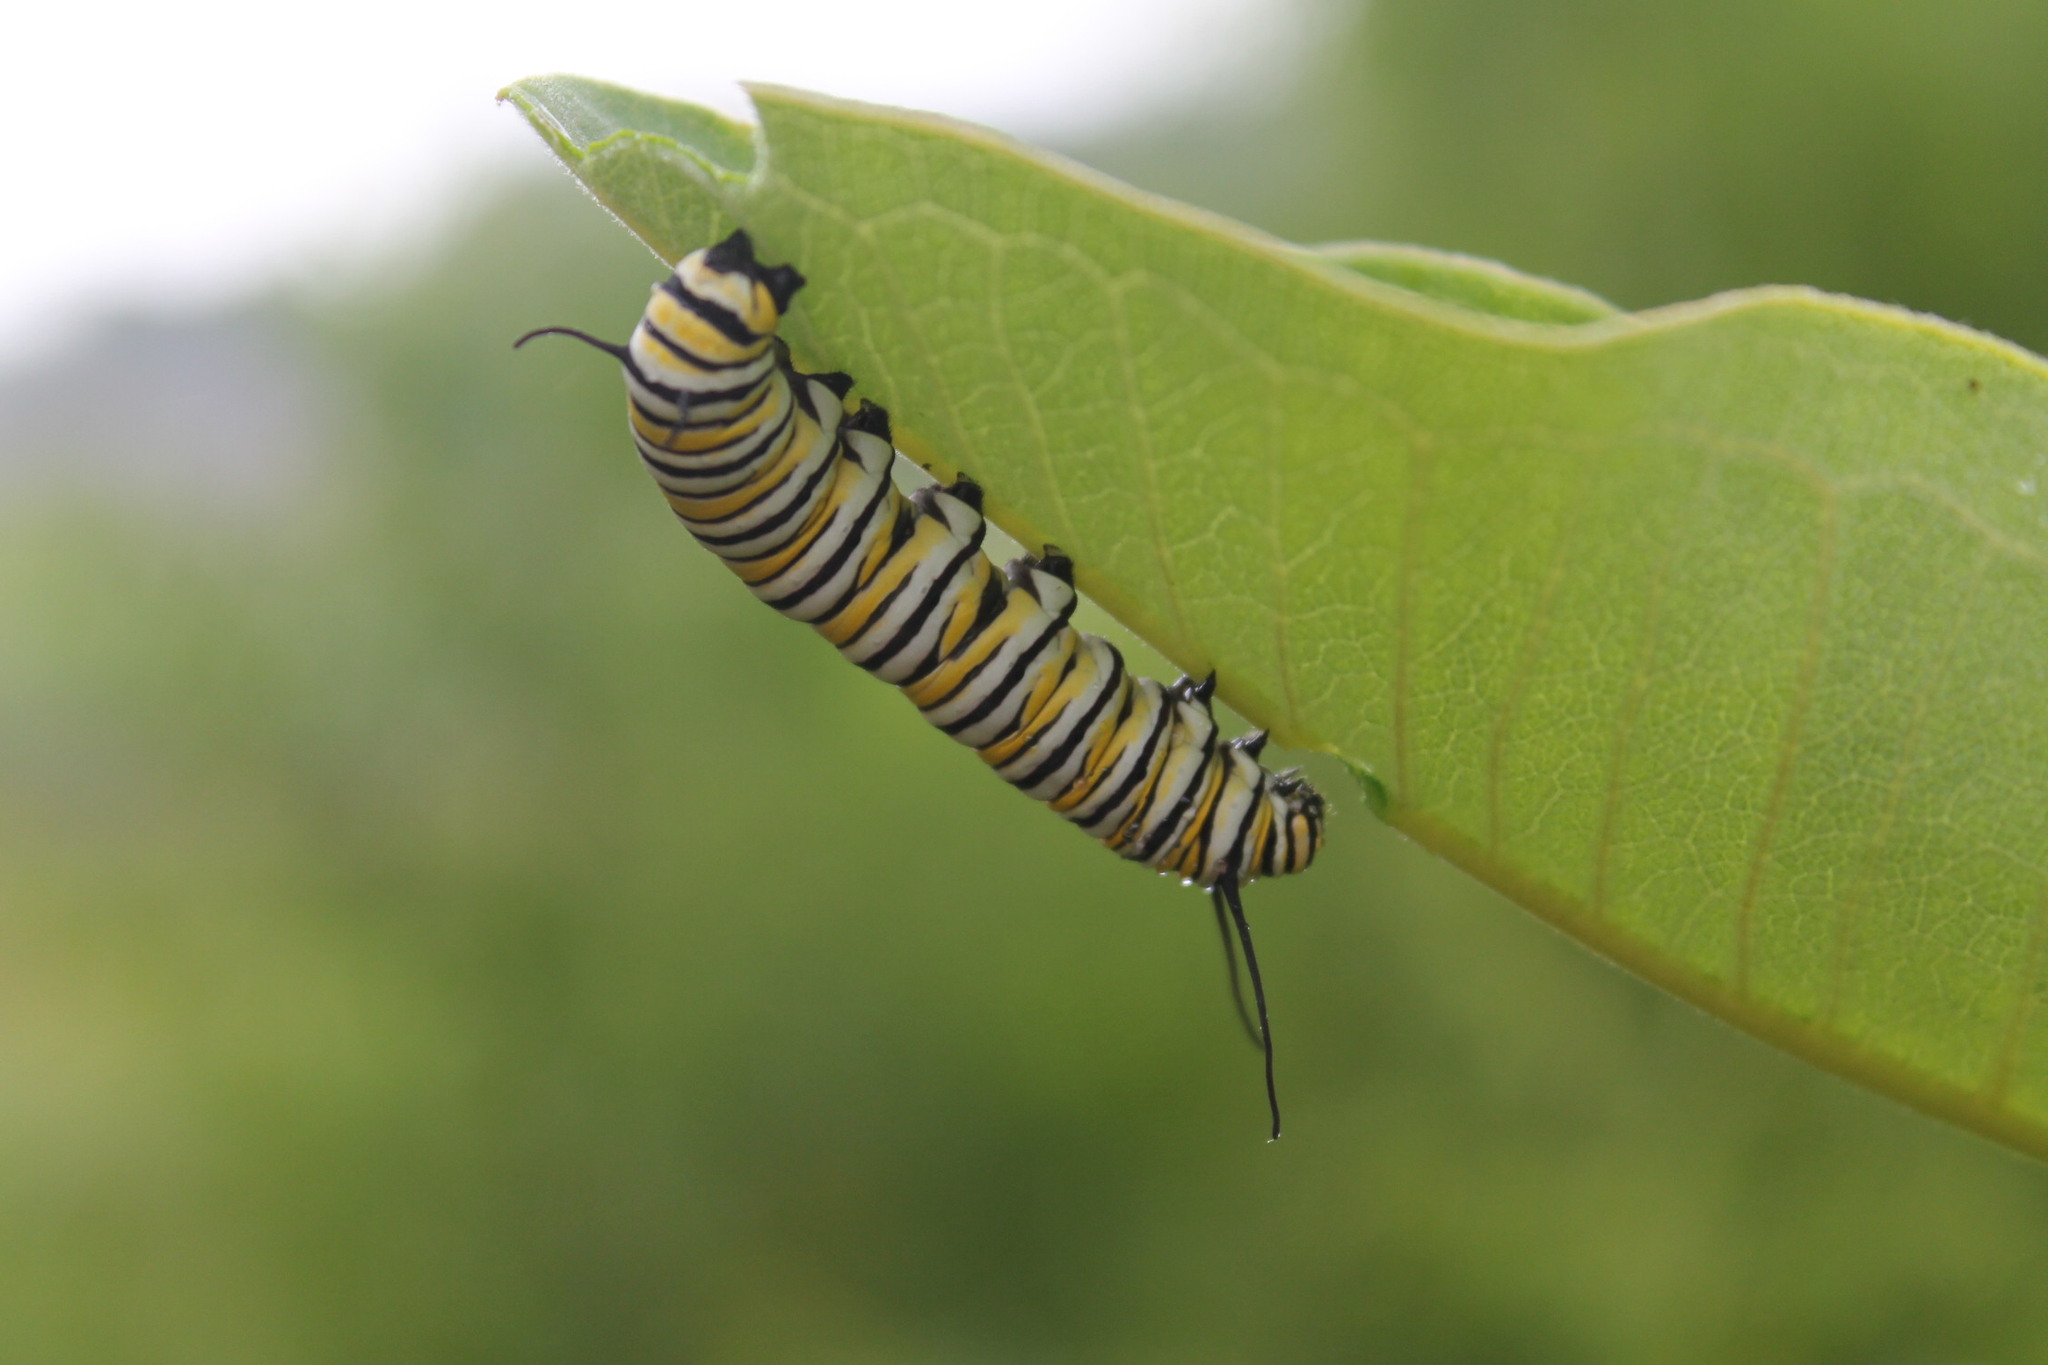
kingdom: Animalia
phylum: Arthropoda
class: Insecta
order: Lepidoptera
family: Nymphalidae
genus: Danaus
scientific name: Danaus plexippus
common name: Monarch
